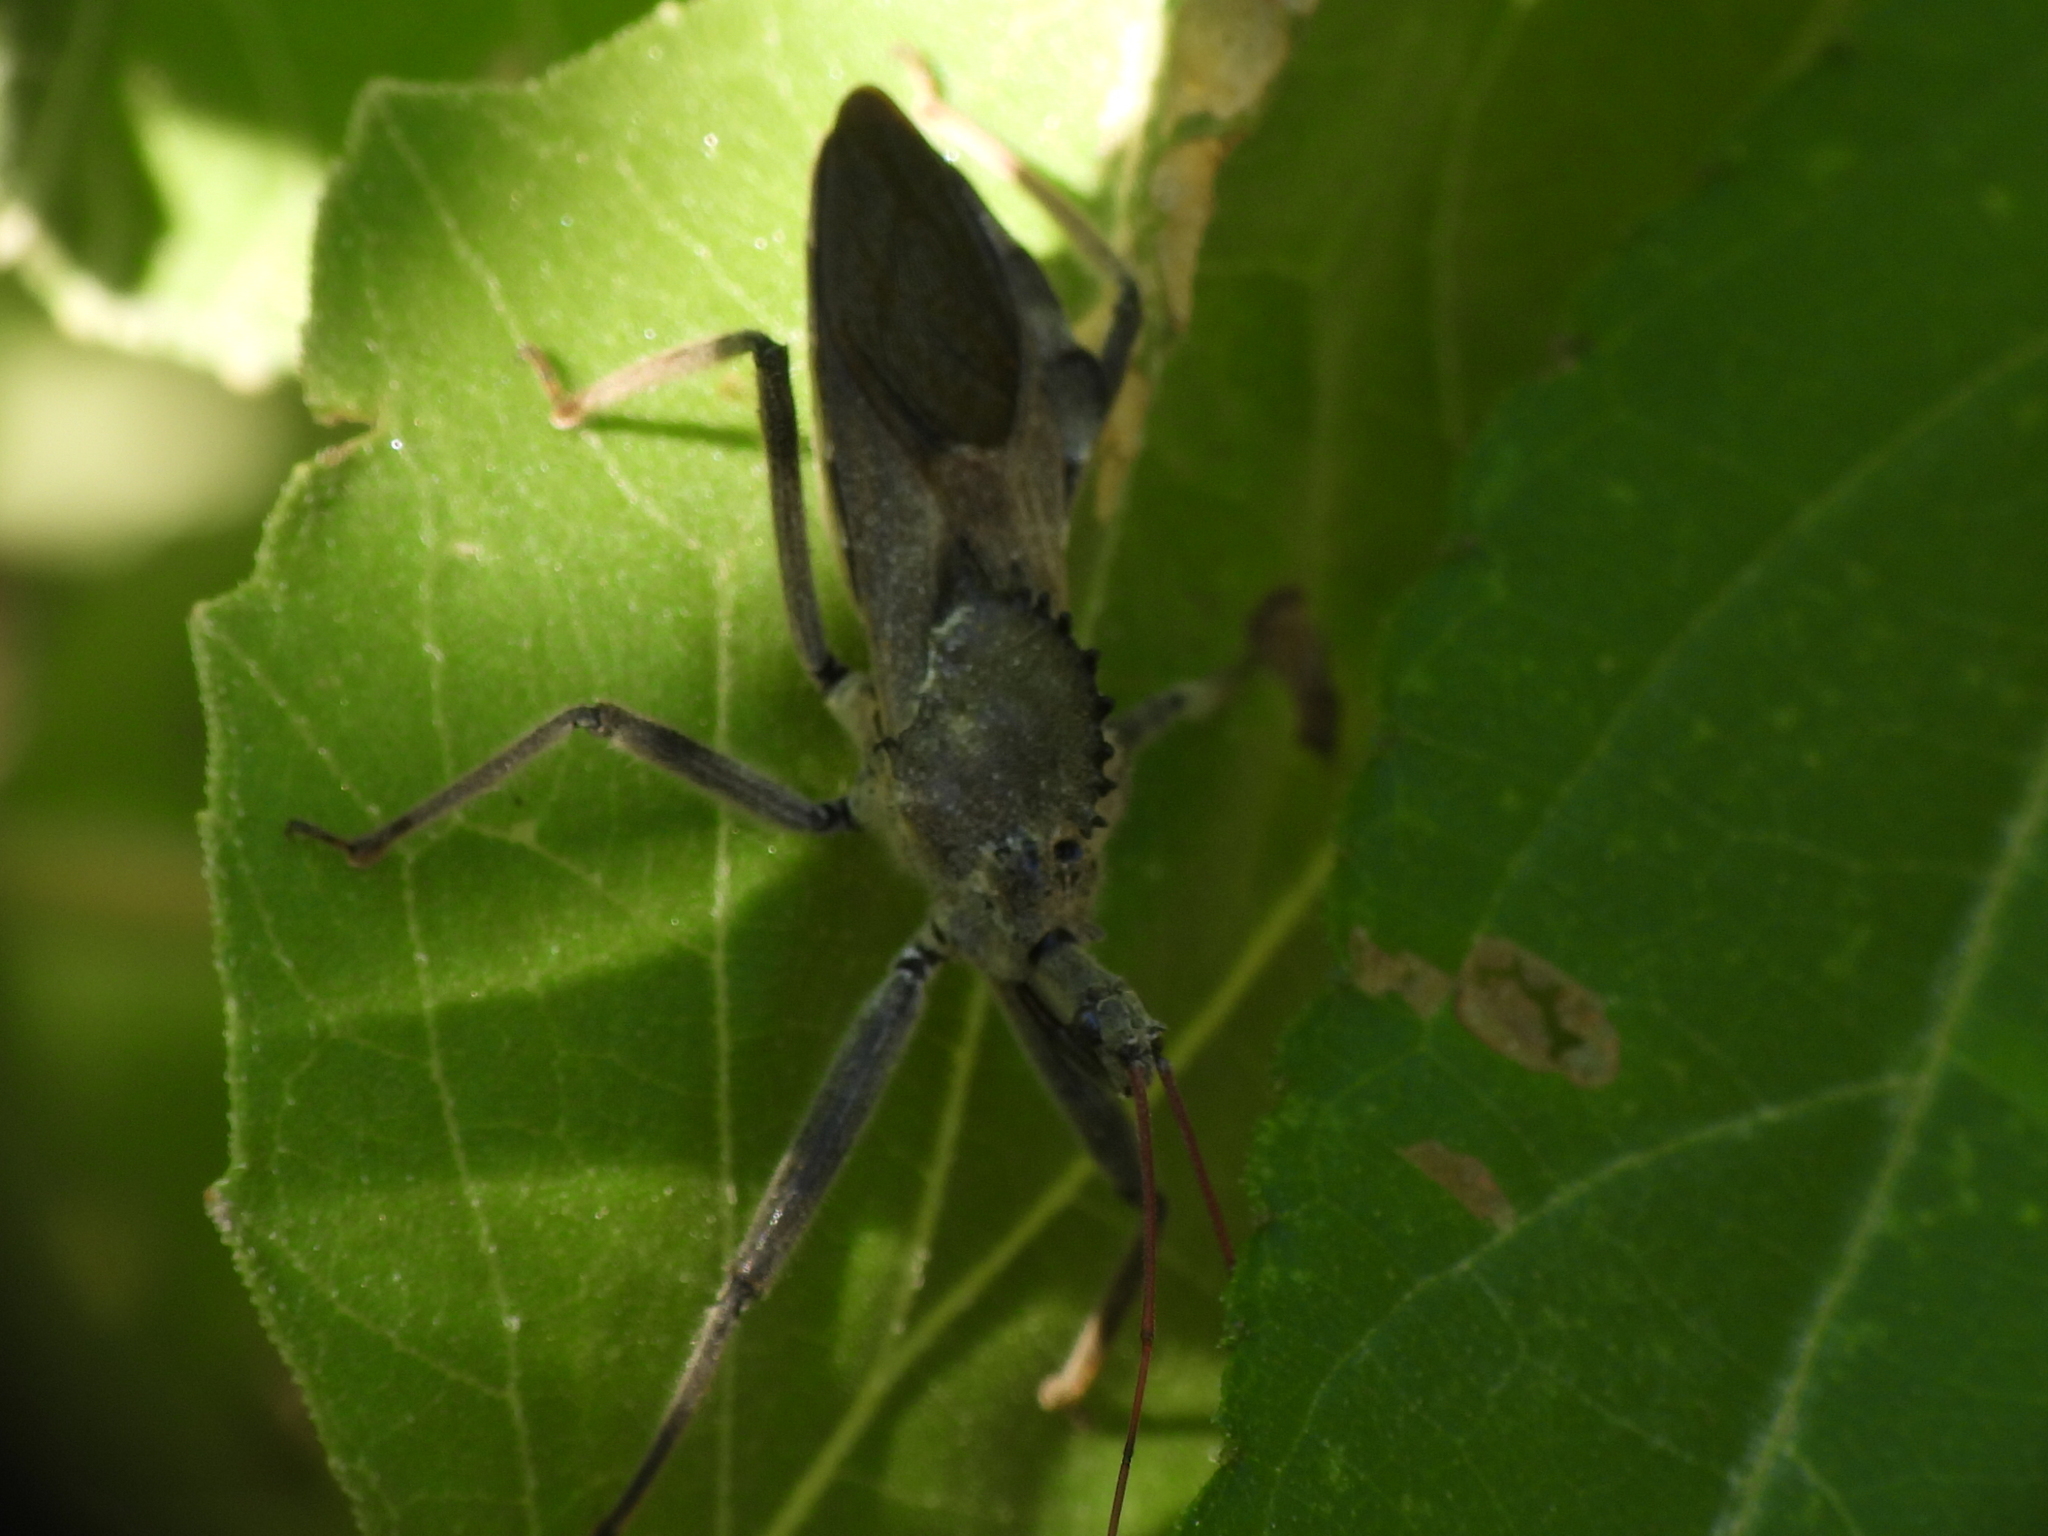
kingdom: Animalia
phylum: Arthropoda
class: Insecta
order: Hemiptera
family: Reduviidae
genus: Arilus
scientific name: Arilus cristatus
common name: North american wheel bug
